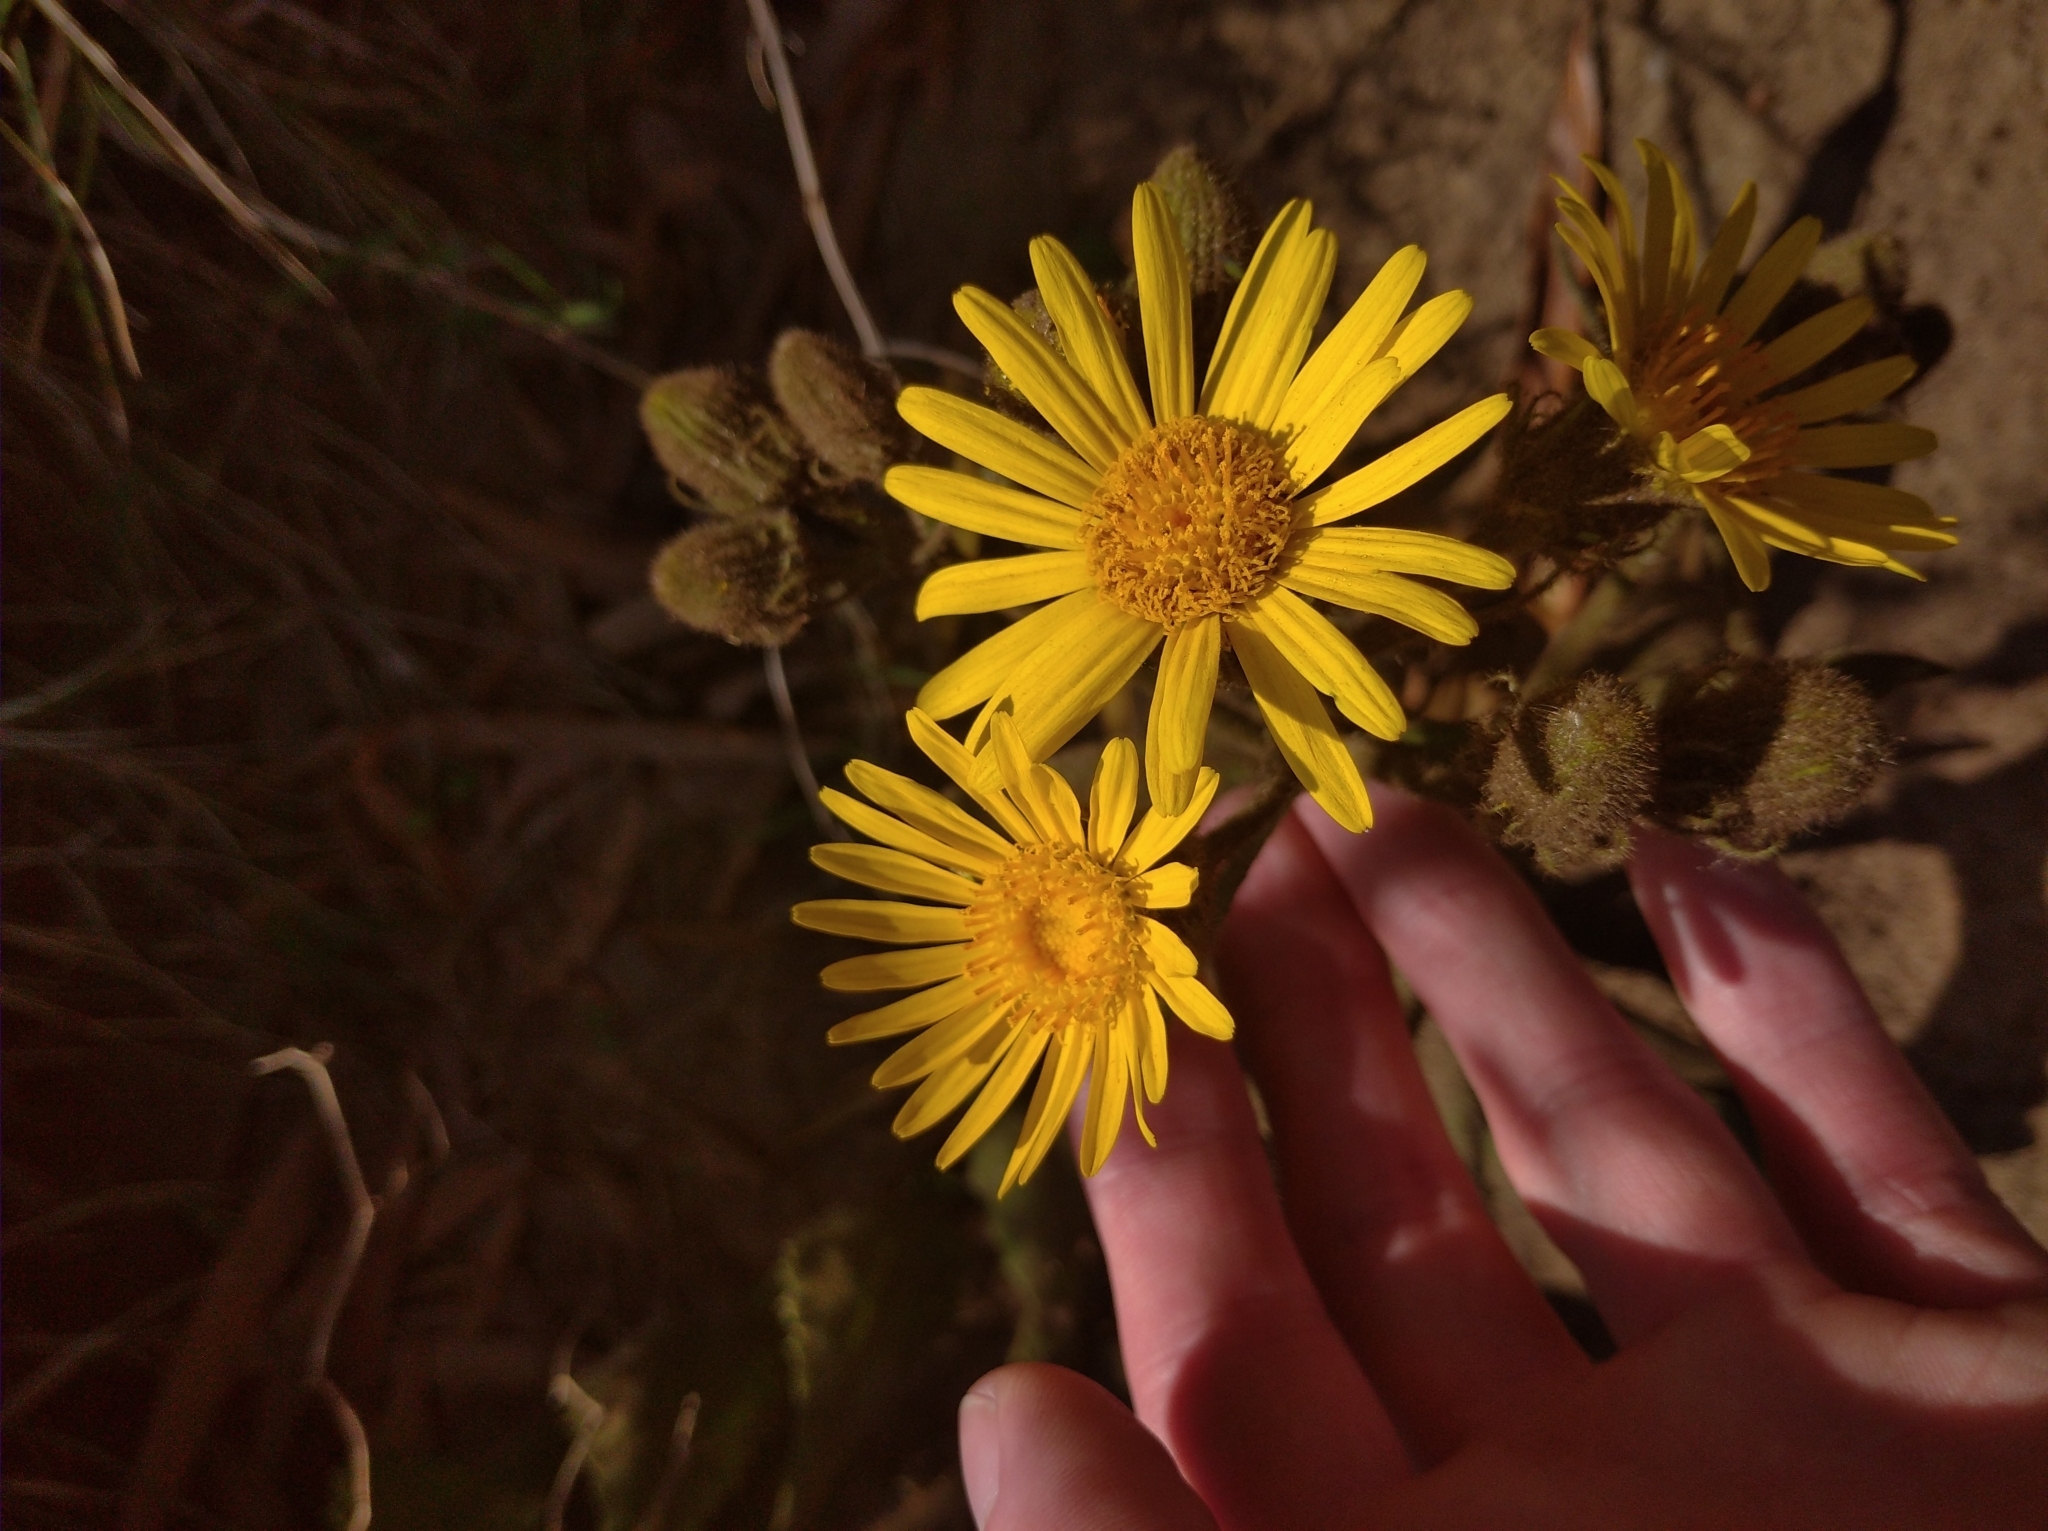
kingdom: Plantae
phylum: Tracheophyta
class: Magnoliopsida
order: Asterales
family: Asteraceae
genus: Senecio
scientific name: Senecio selloi
